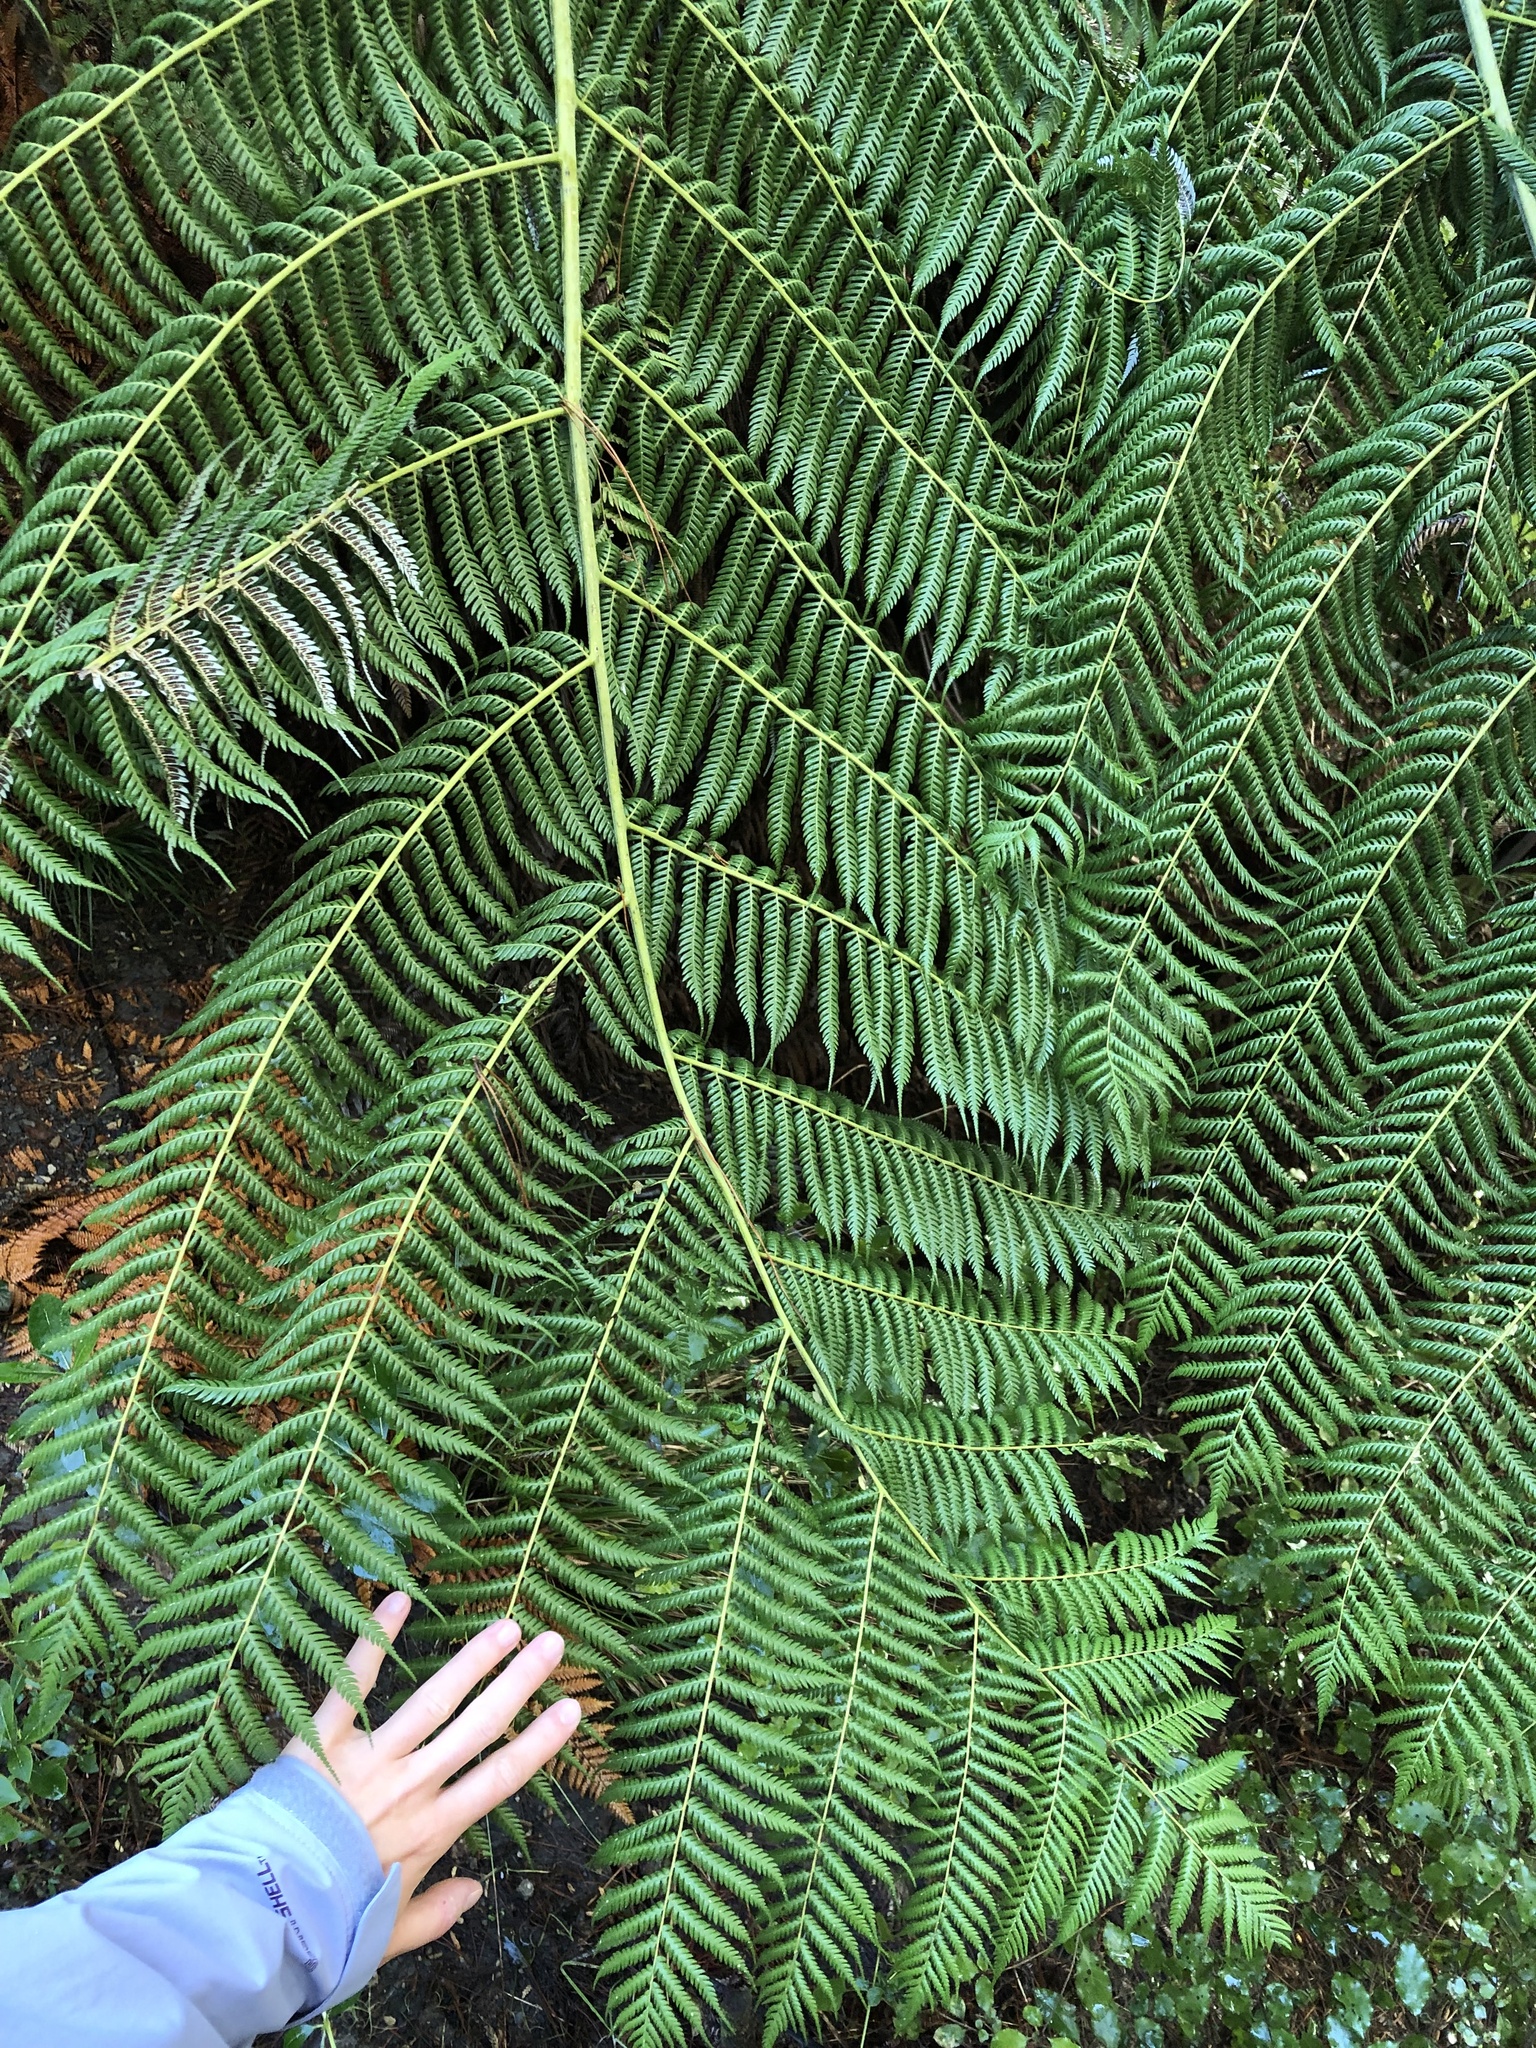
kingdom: Plantae
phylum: Tracheophyta
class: Polypodiopsida
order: Cyatheales
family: Cyatheaceae
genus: Alsophila
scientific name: Alsophila dealbata
